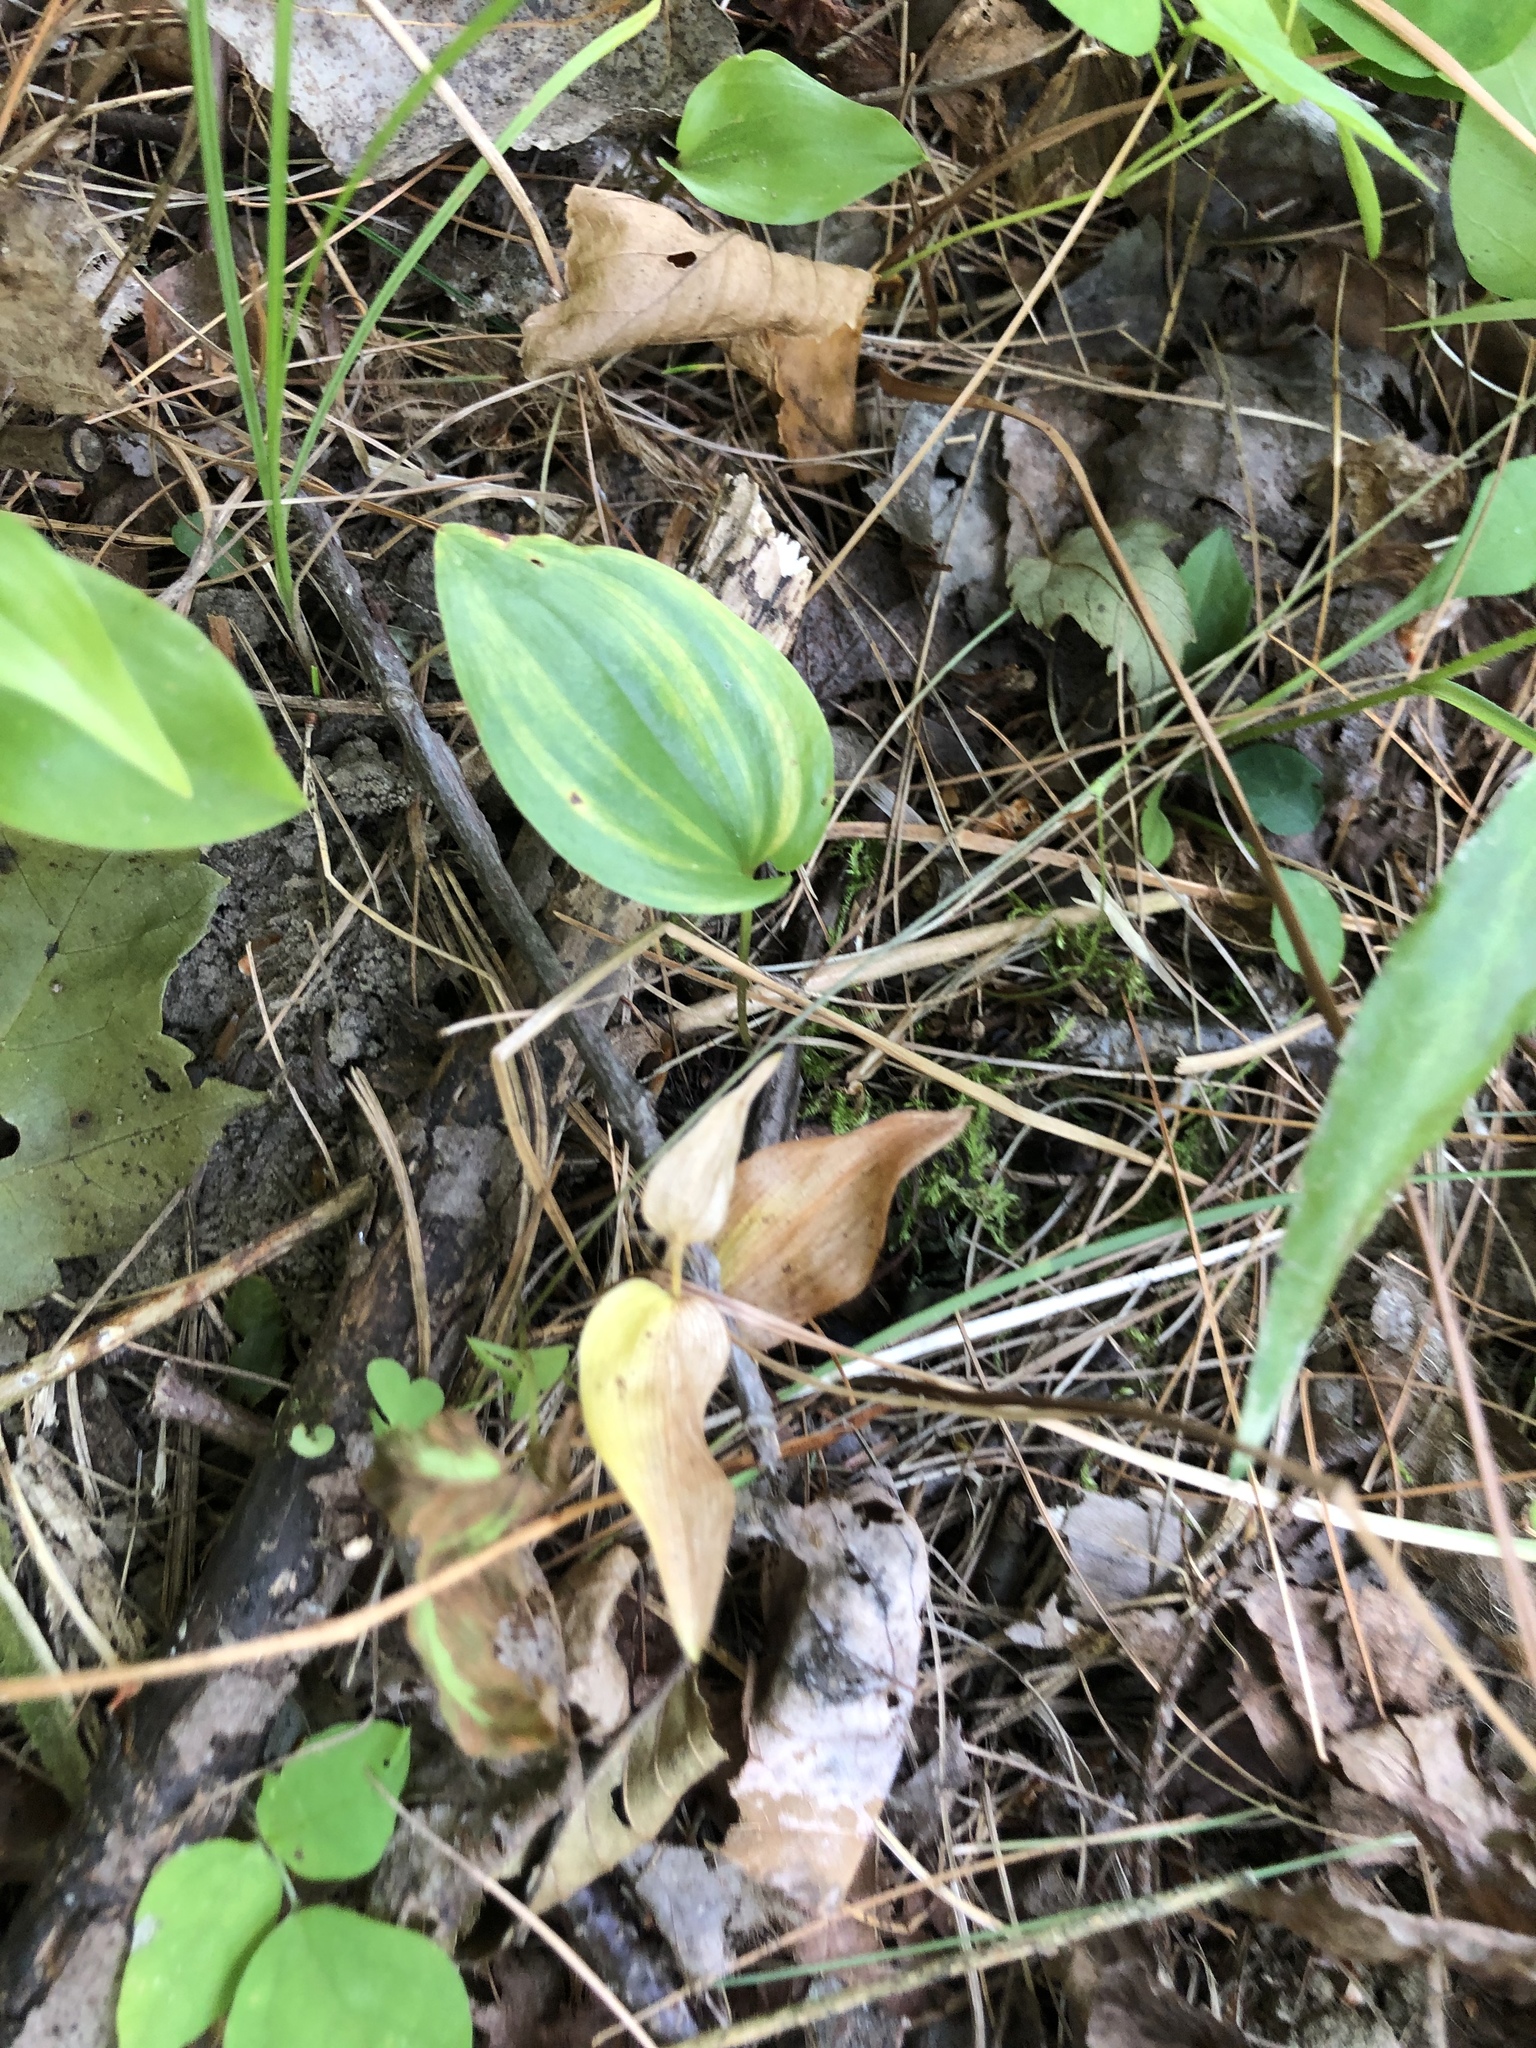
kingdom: Plantae
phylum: Tracheophyta
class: Liliopsida
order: Asparagales
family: Asparagaceae
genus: Maianthemum
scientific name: Maianthemum canadense
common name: False lily-of-the-valley
